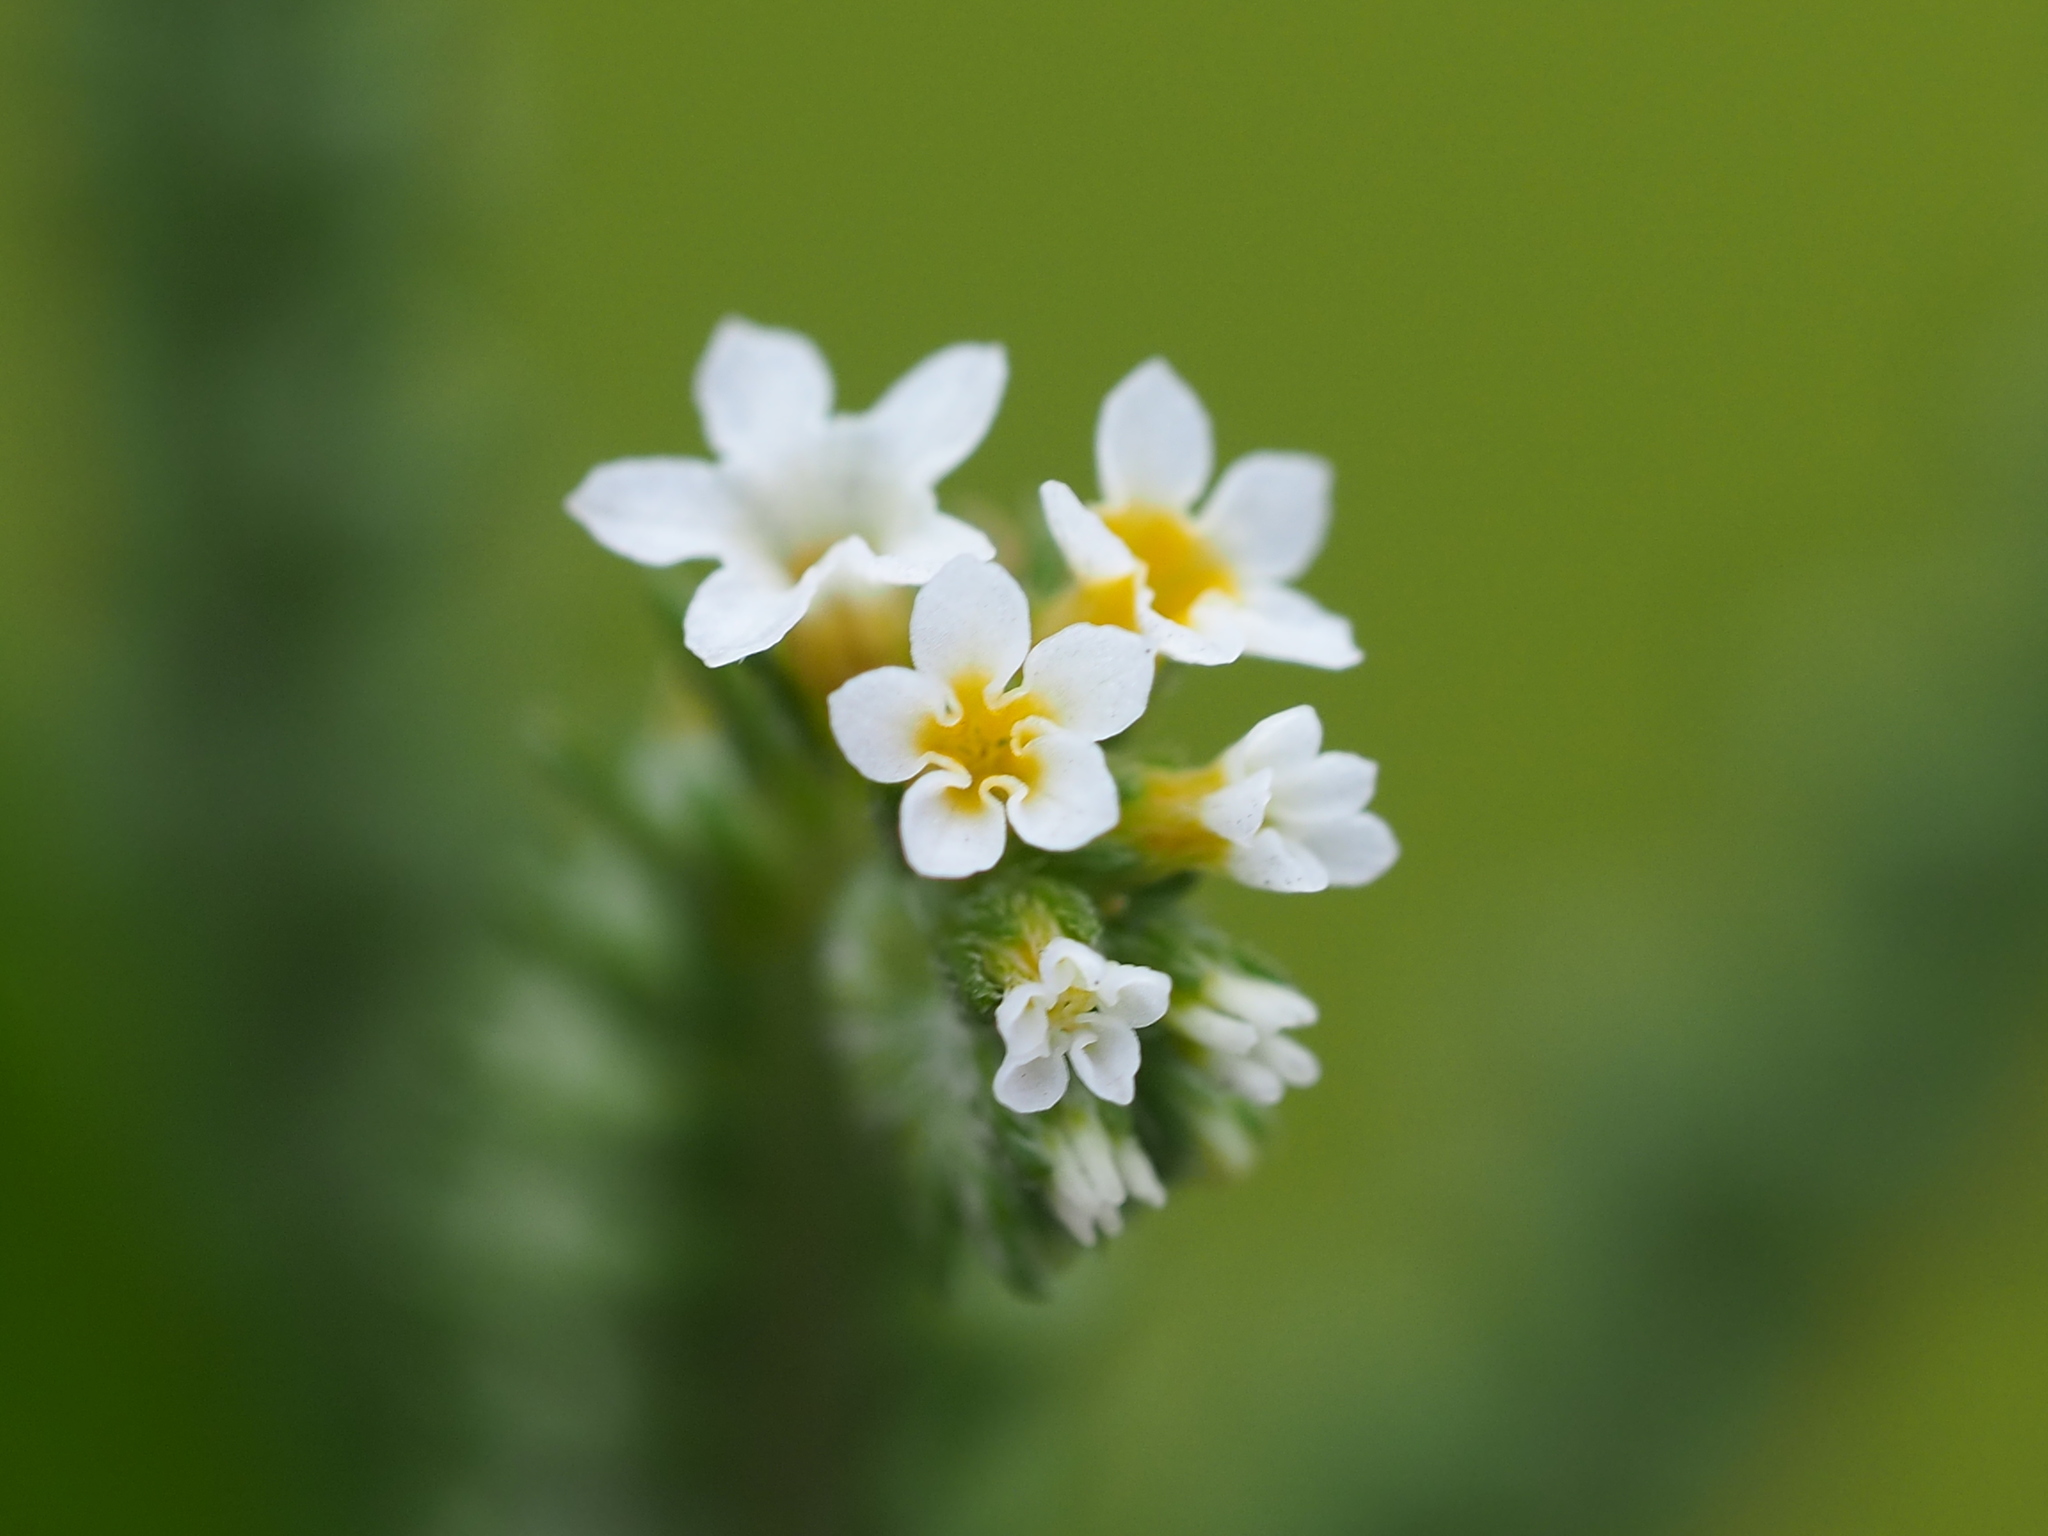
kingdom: Plantae
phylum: Tracheophyta
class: Magnoliopsida
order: Boraginales
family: Heliotropiaceae
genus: Euploca
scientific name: Euploca procumbens
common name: Fourspike heliotrope
